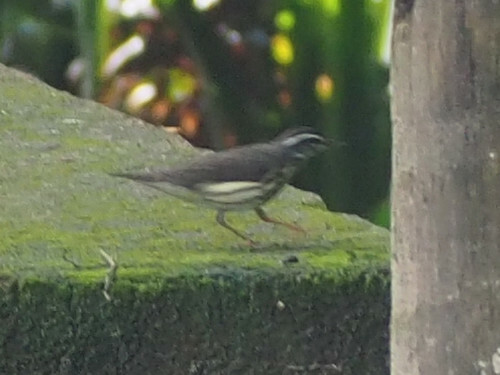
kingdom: Animalia
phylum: Chordata
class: Aves
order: Passeriformes
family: Parulidae
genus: Parkesia
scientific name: Parkesia motacilla
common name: Louisiana waterthrush
